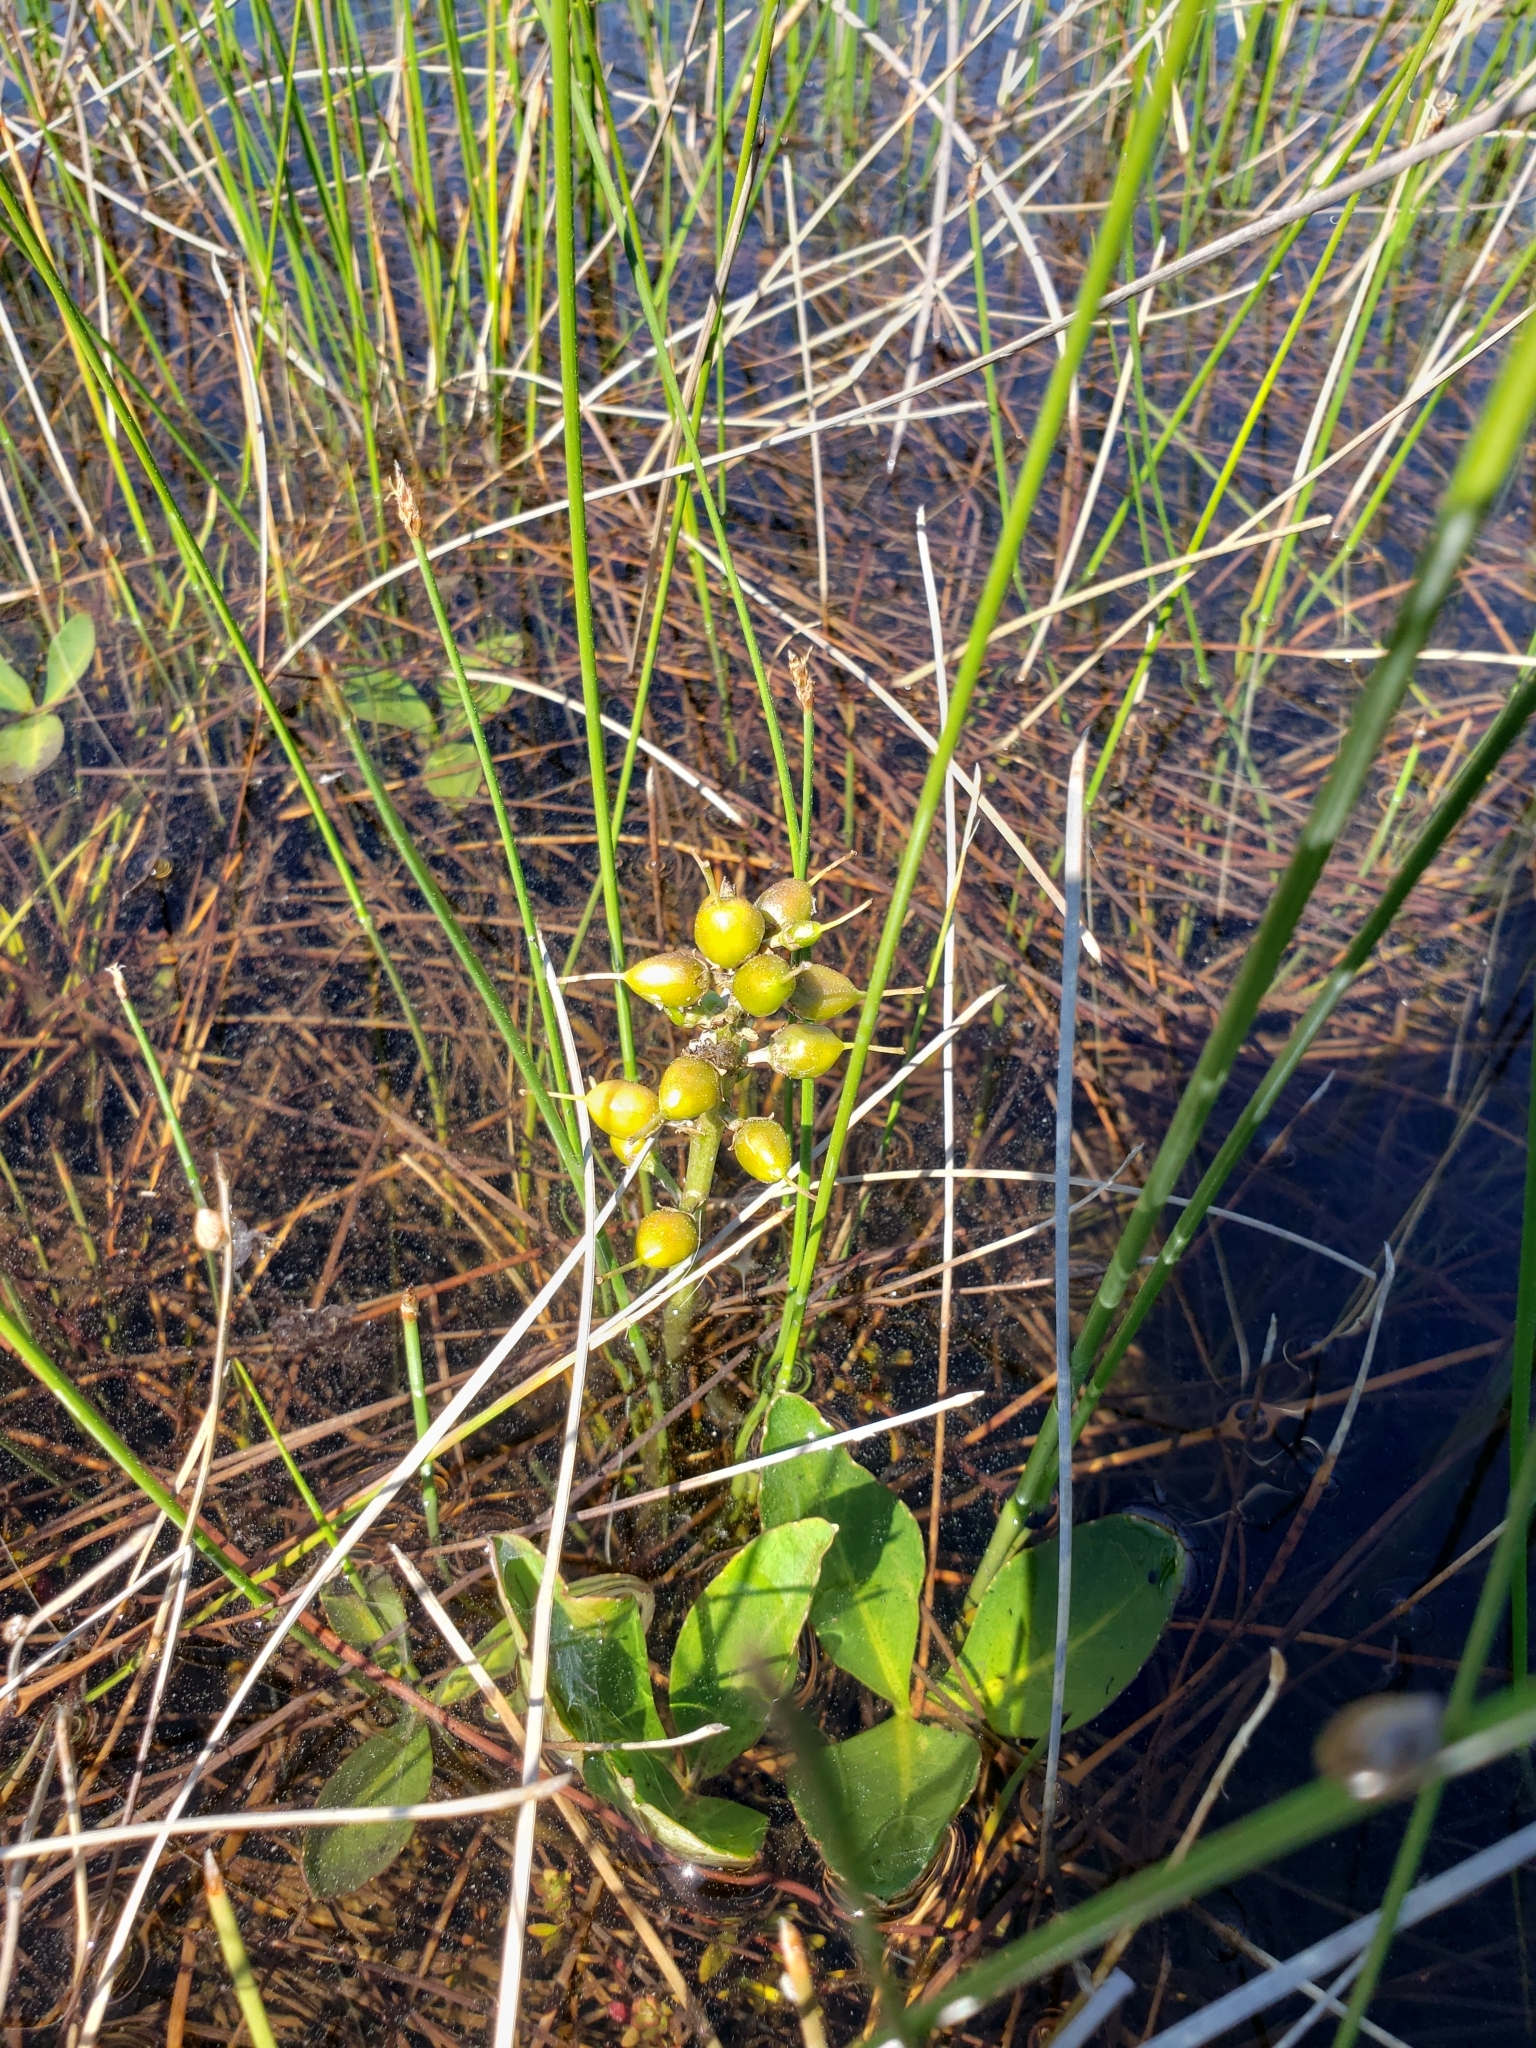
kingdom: Plantae
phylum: Tracheophyta
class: Magnoliopsida
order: Asterales
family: Menyanthaceae
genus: Menyanthes
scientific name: Menyanthes trifoliata
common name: Bogbean
